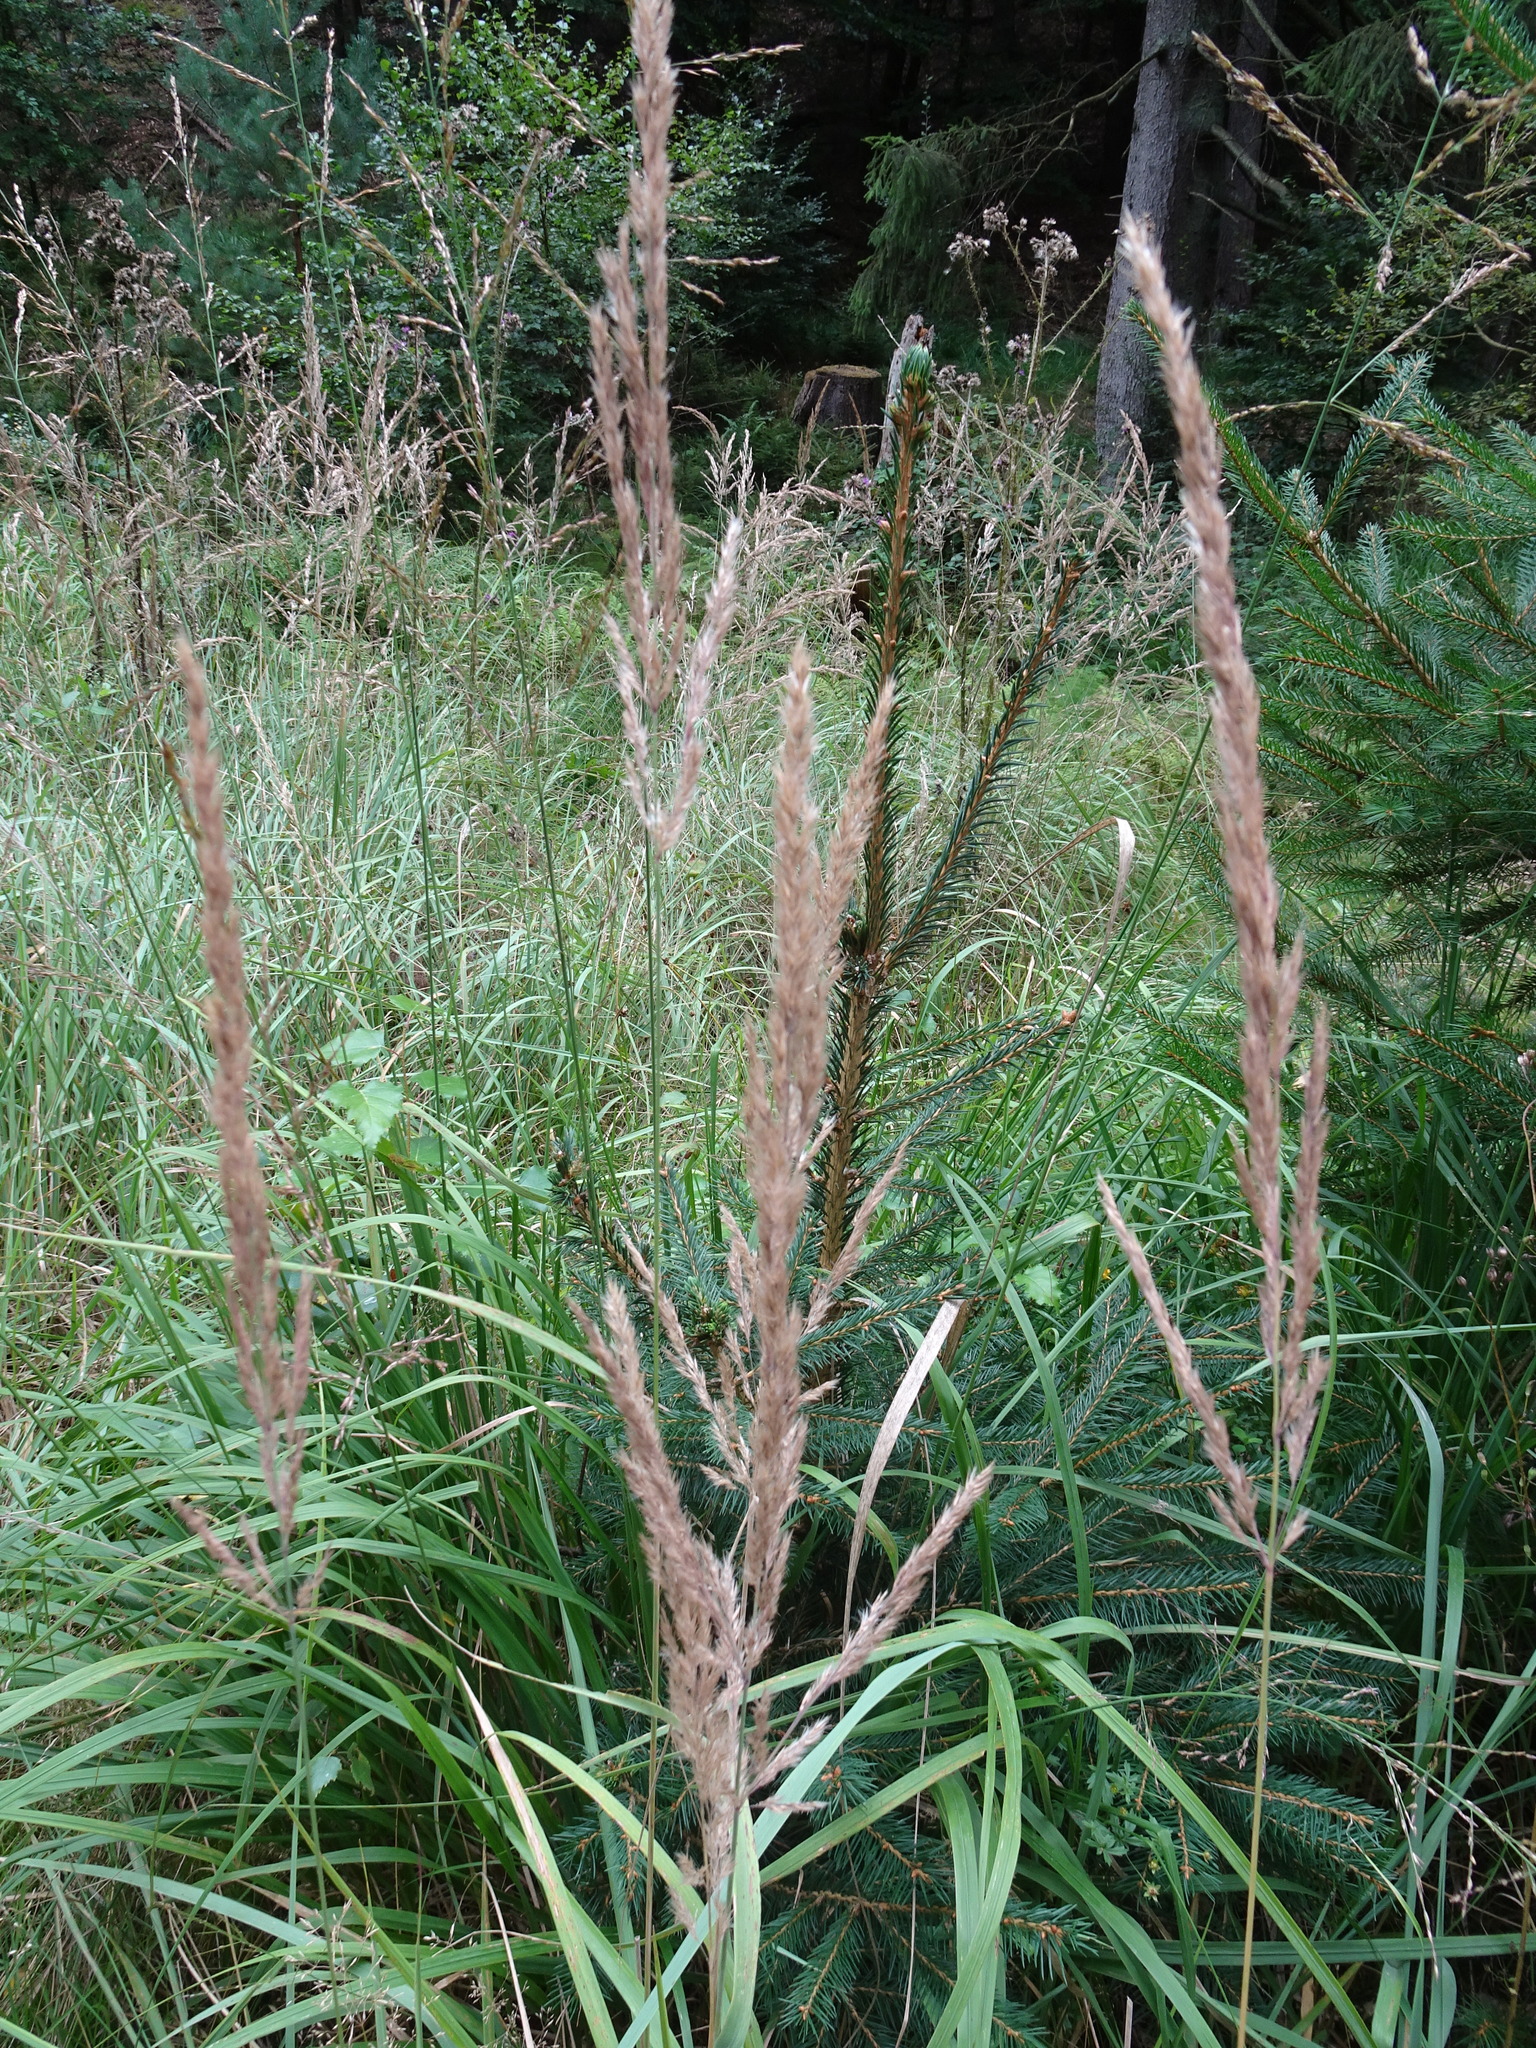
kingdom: Plantae
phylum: Tracheophyta
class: Liliopsida
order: Poales
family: Poaceae
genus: Calamagrostis
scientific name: Calamagrostis epigejos
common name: Wood small-reed
